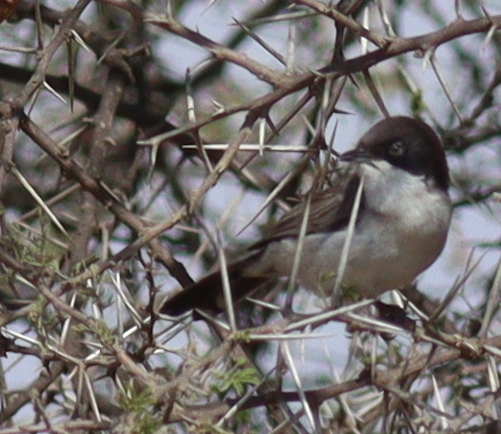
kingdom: Animalia
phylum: Chordata
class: Aves
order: Passeriformes
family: Sylviidae
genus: Sylvia
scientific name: Sylvia leucomelaena
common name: Arabian warbler
